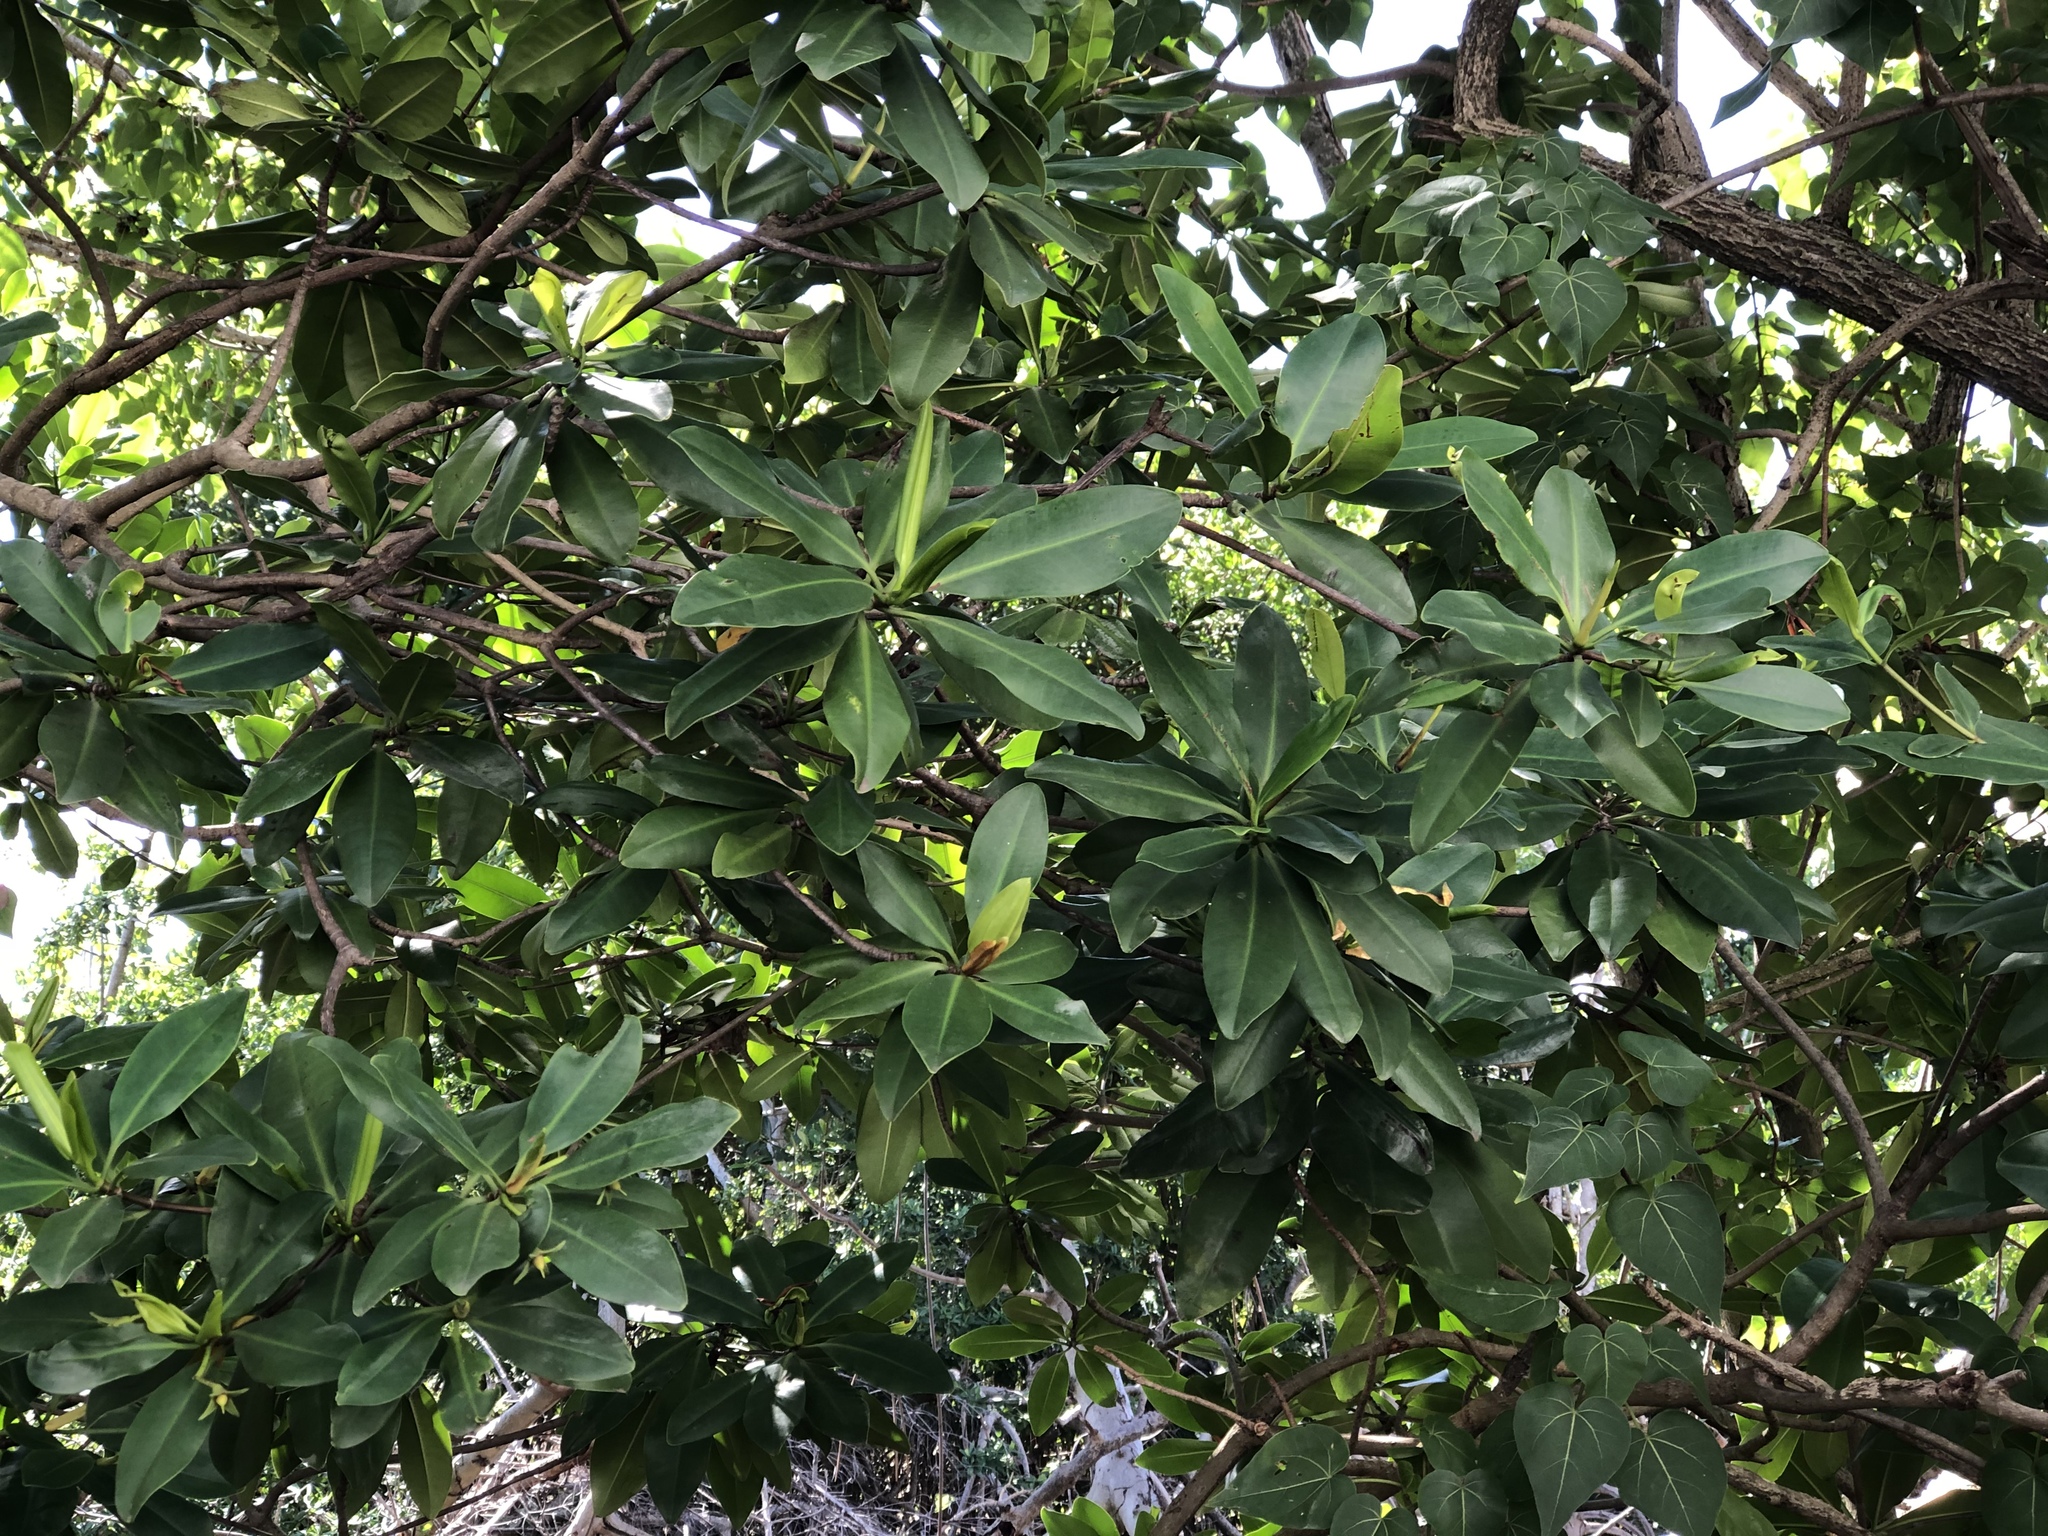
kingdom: Plantae
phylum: Tracheophyta
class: Magnoliopsida
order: Malpighiales
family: Rhizophoraceae
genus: Rhizophora
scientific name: Rhizophora mangle
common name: Red mangrove
